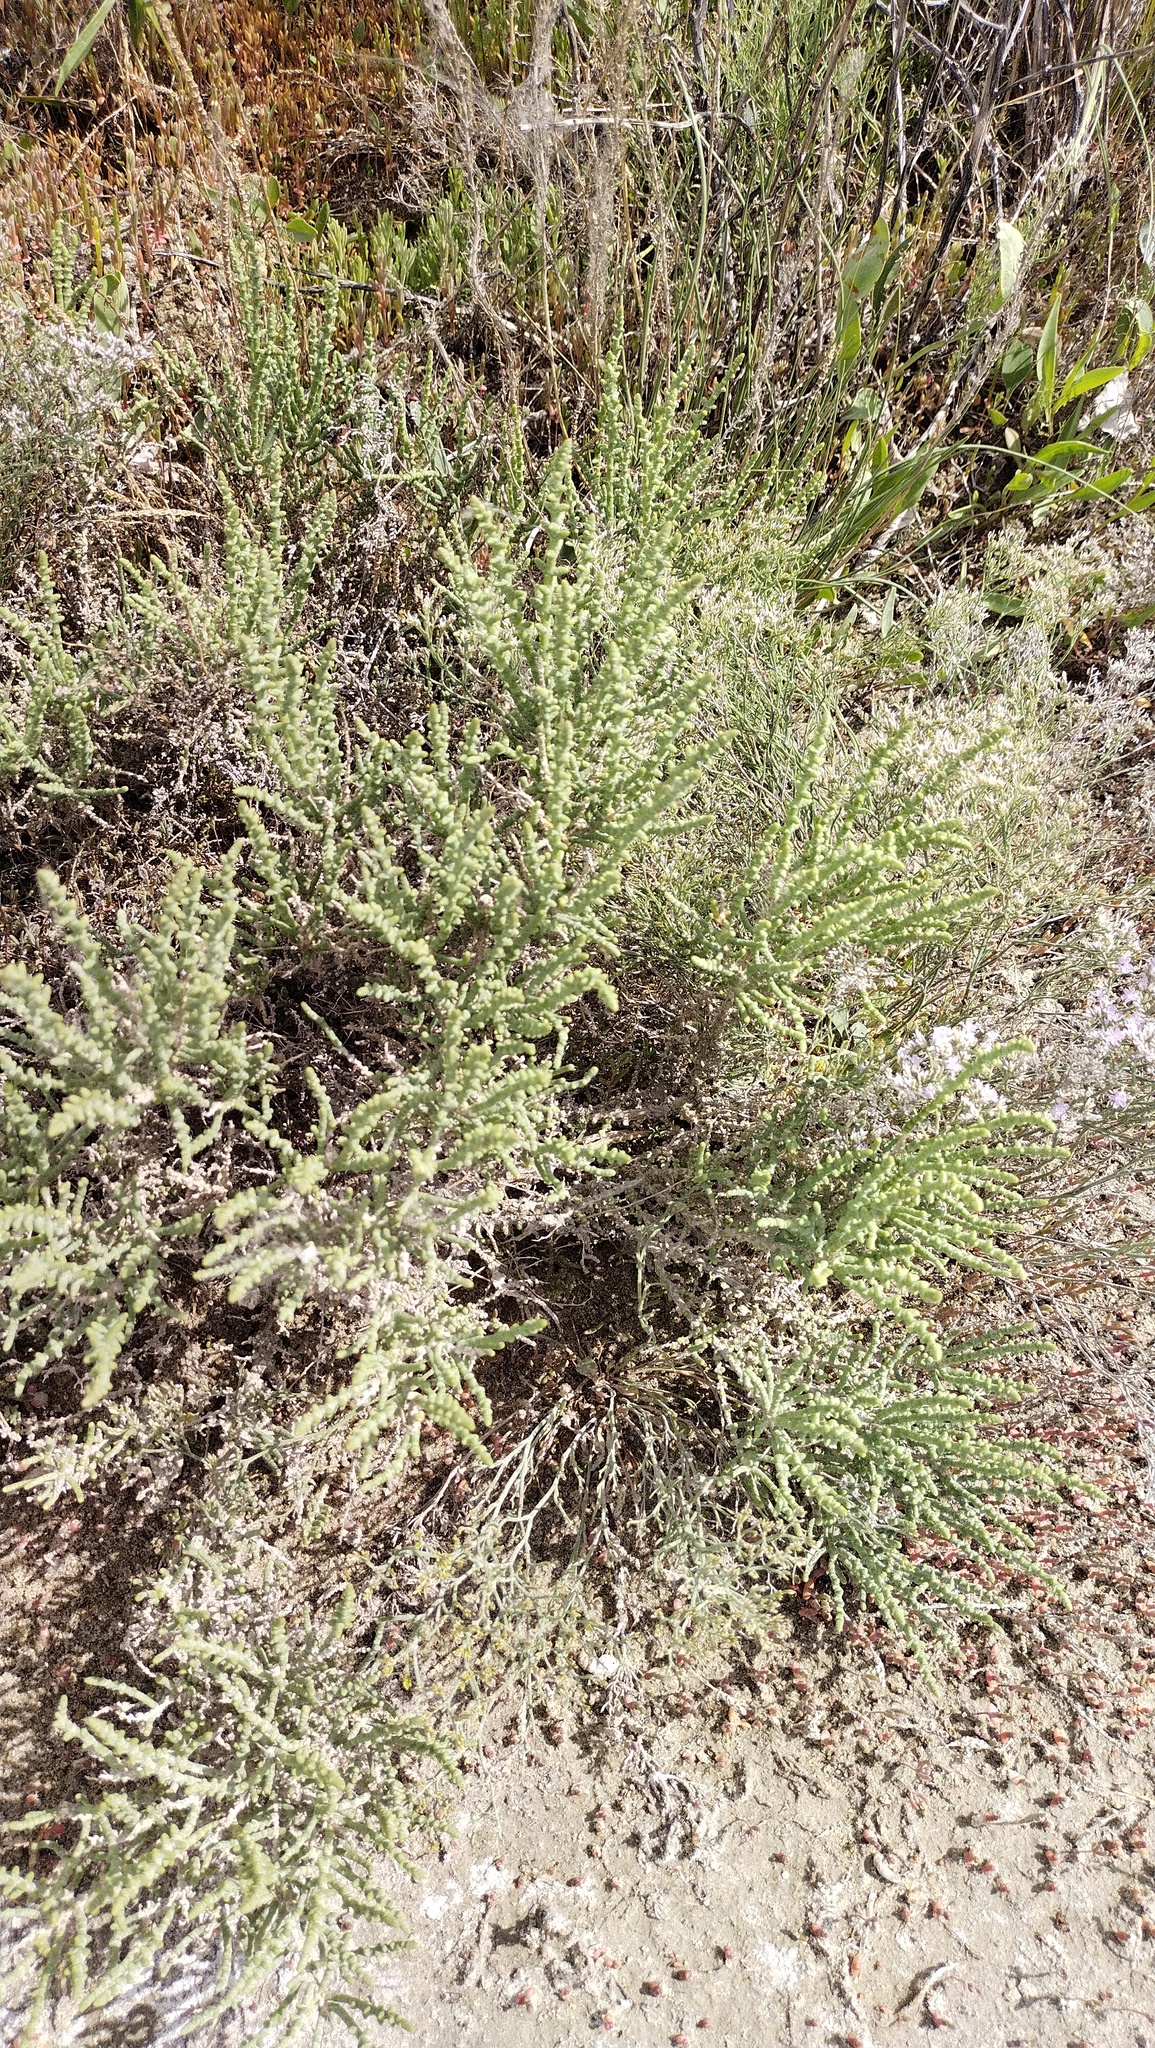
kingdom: Plantae
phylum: Tracheophyta
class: Magnoliopsida
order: Caryophyllales
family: Amaranthaceae
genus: Kalidium
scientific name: Kalidium foliatum
